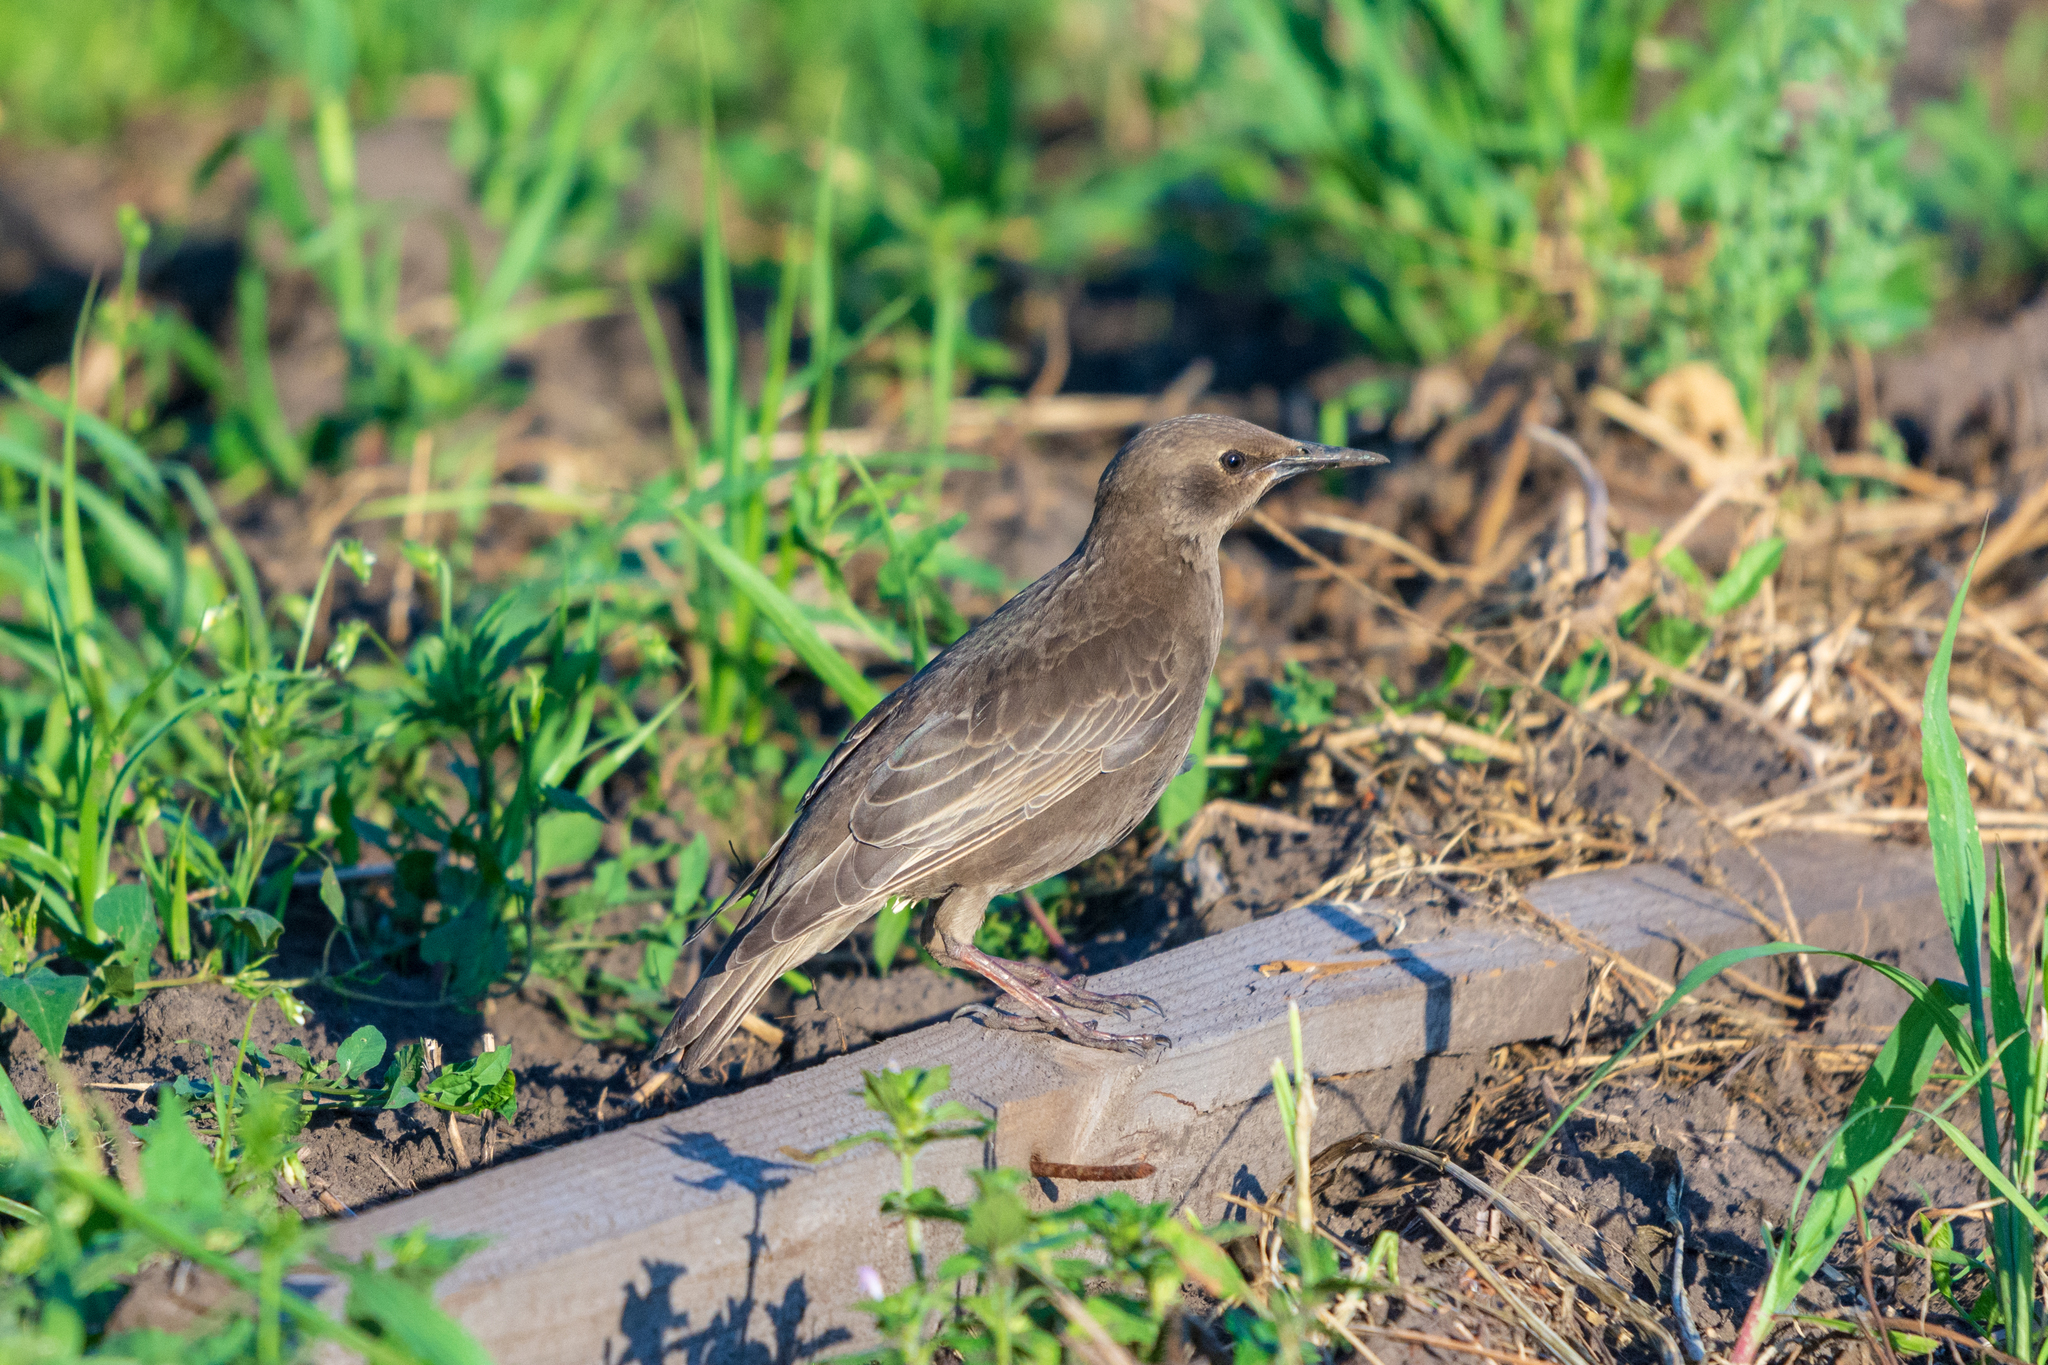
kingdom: Animalia
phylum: Chordata
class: Aves
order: Passeriformes
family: Sturnidae
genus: Sturnus
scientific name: Sturnus vulgaris
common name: Common starling
